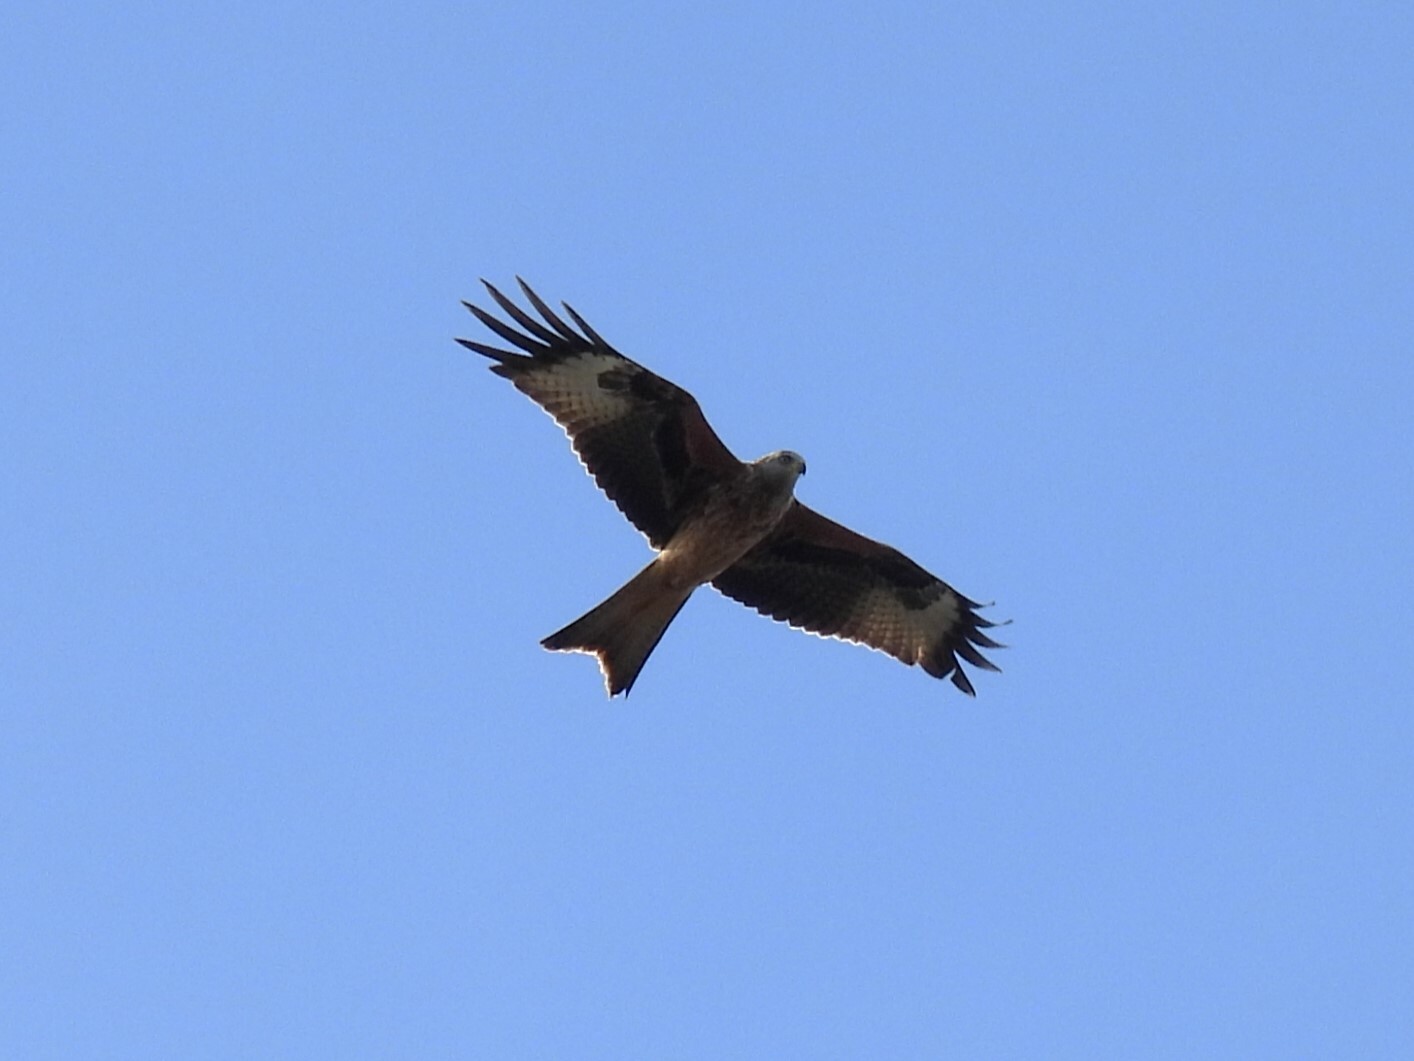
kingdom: Animalia
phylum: Chordata
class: Aves
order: Accipitriformes
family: Accipitridae
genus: Milvus
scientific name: Milvus milvus
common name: Red kite
